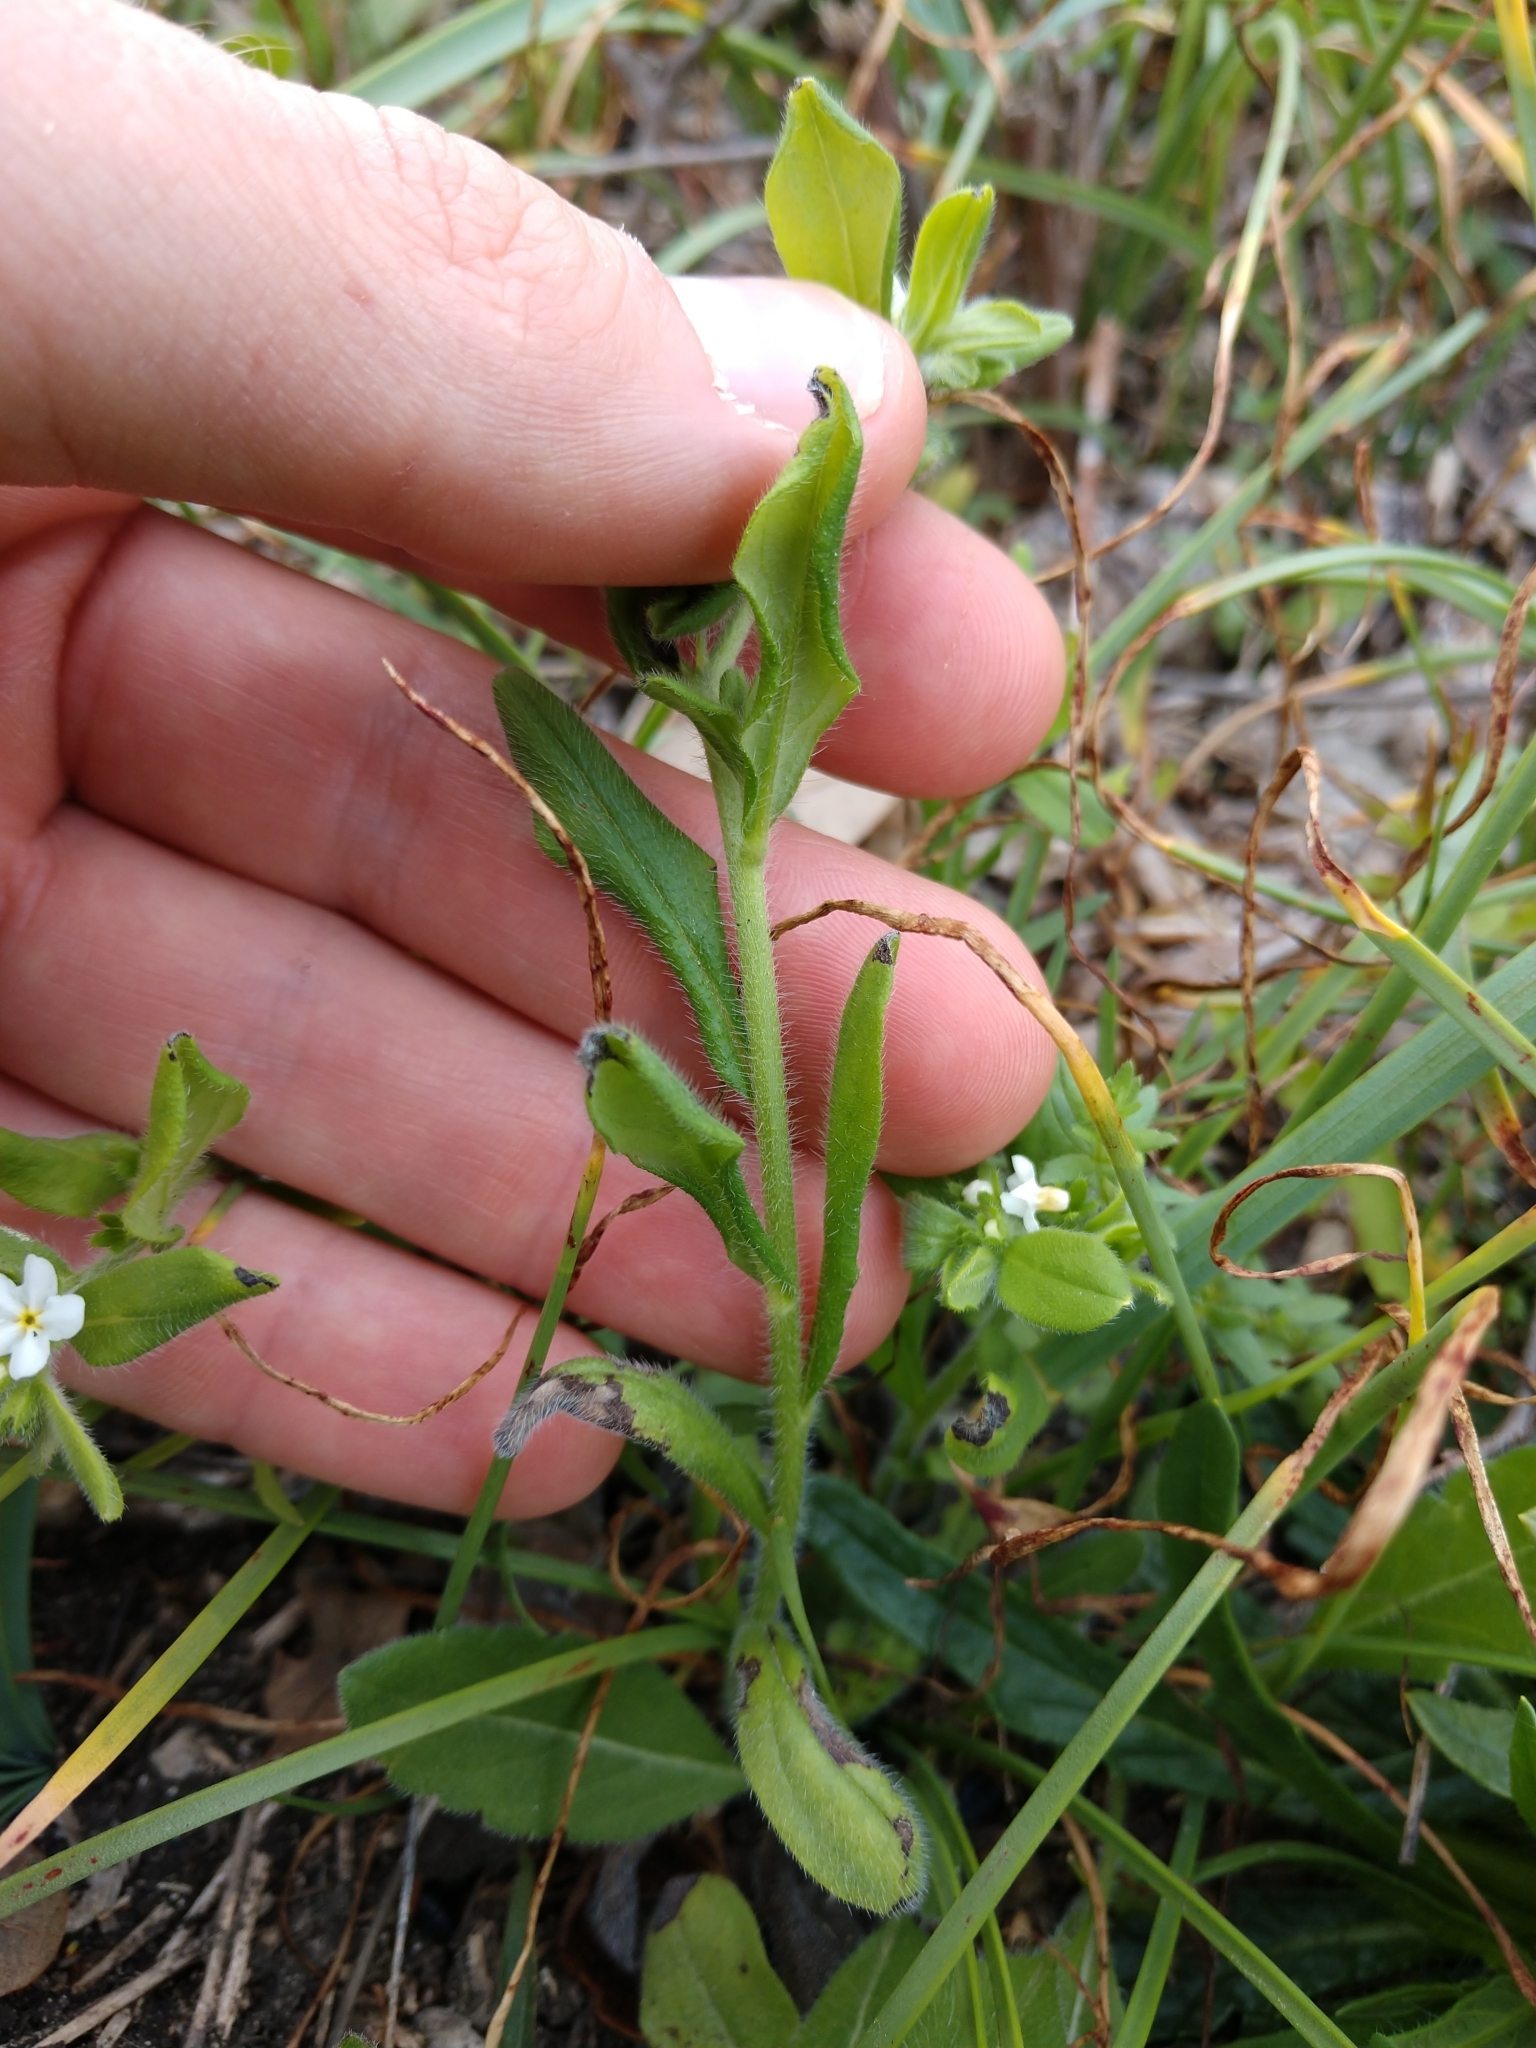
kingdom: Plantae
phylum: Tracheophyta
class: Magnoliopsida
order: Boraginales
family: Boraginaceae
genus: Lithospermum
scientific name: Lithospermum matamorense
